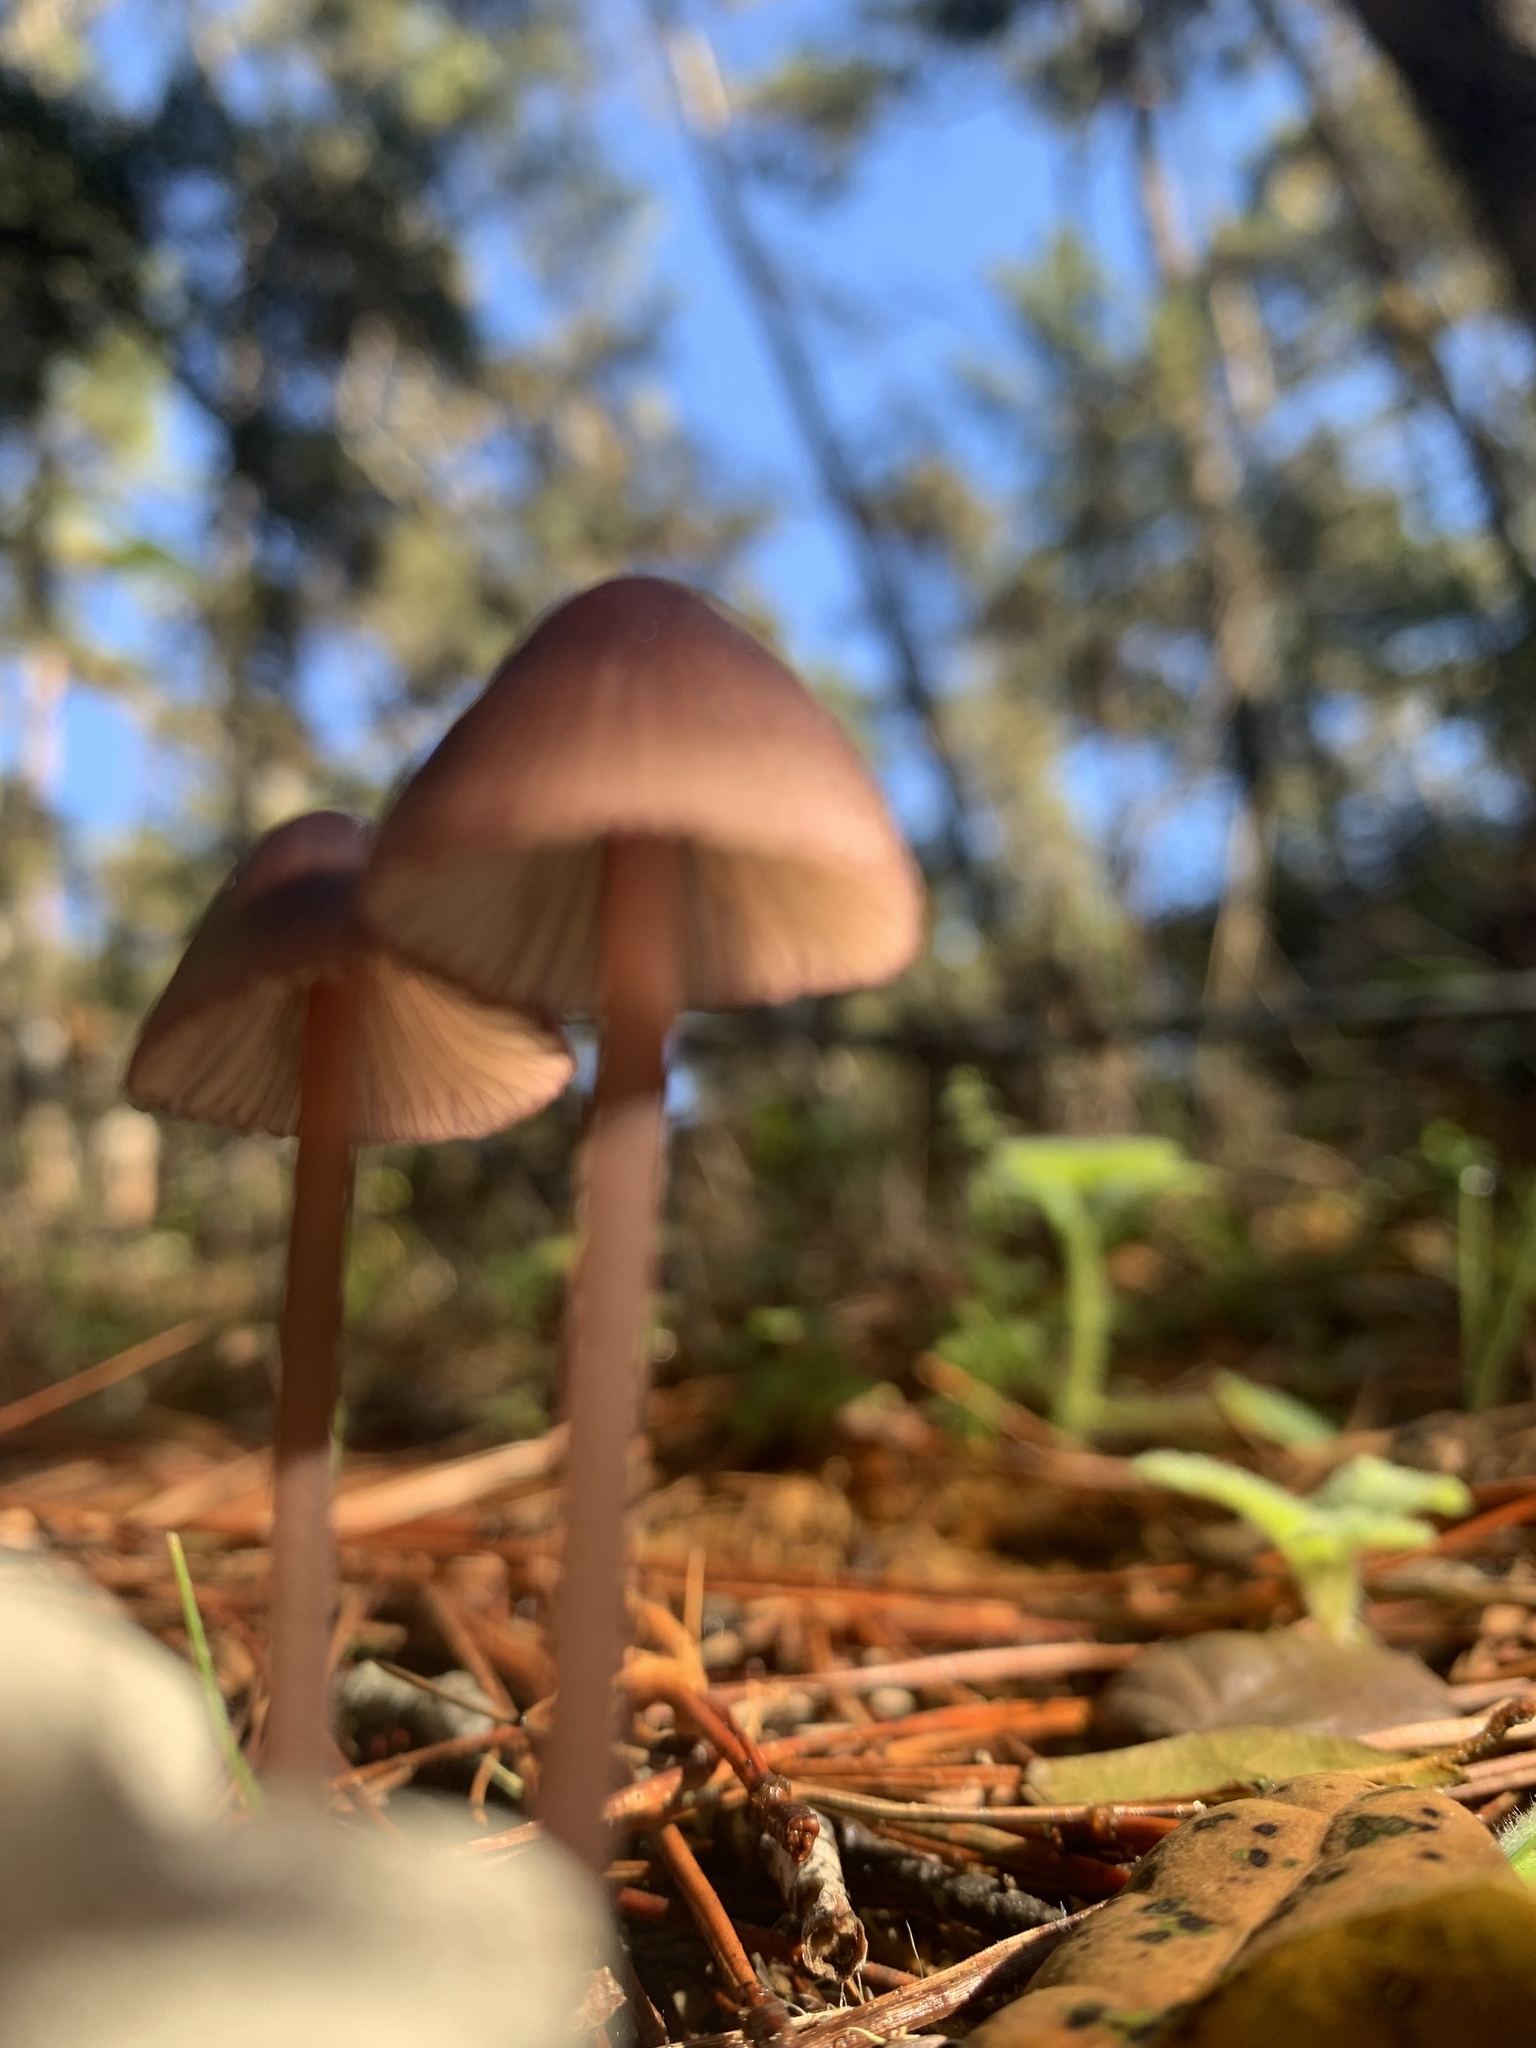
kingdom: Fungi
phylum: Basidiomycota
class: Agaricomycetes
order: Agaricales
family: Mycenaceae
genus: Mycena
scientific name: Mycena purpureofusca
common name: Purple edge bonnet
